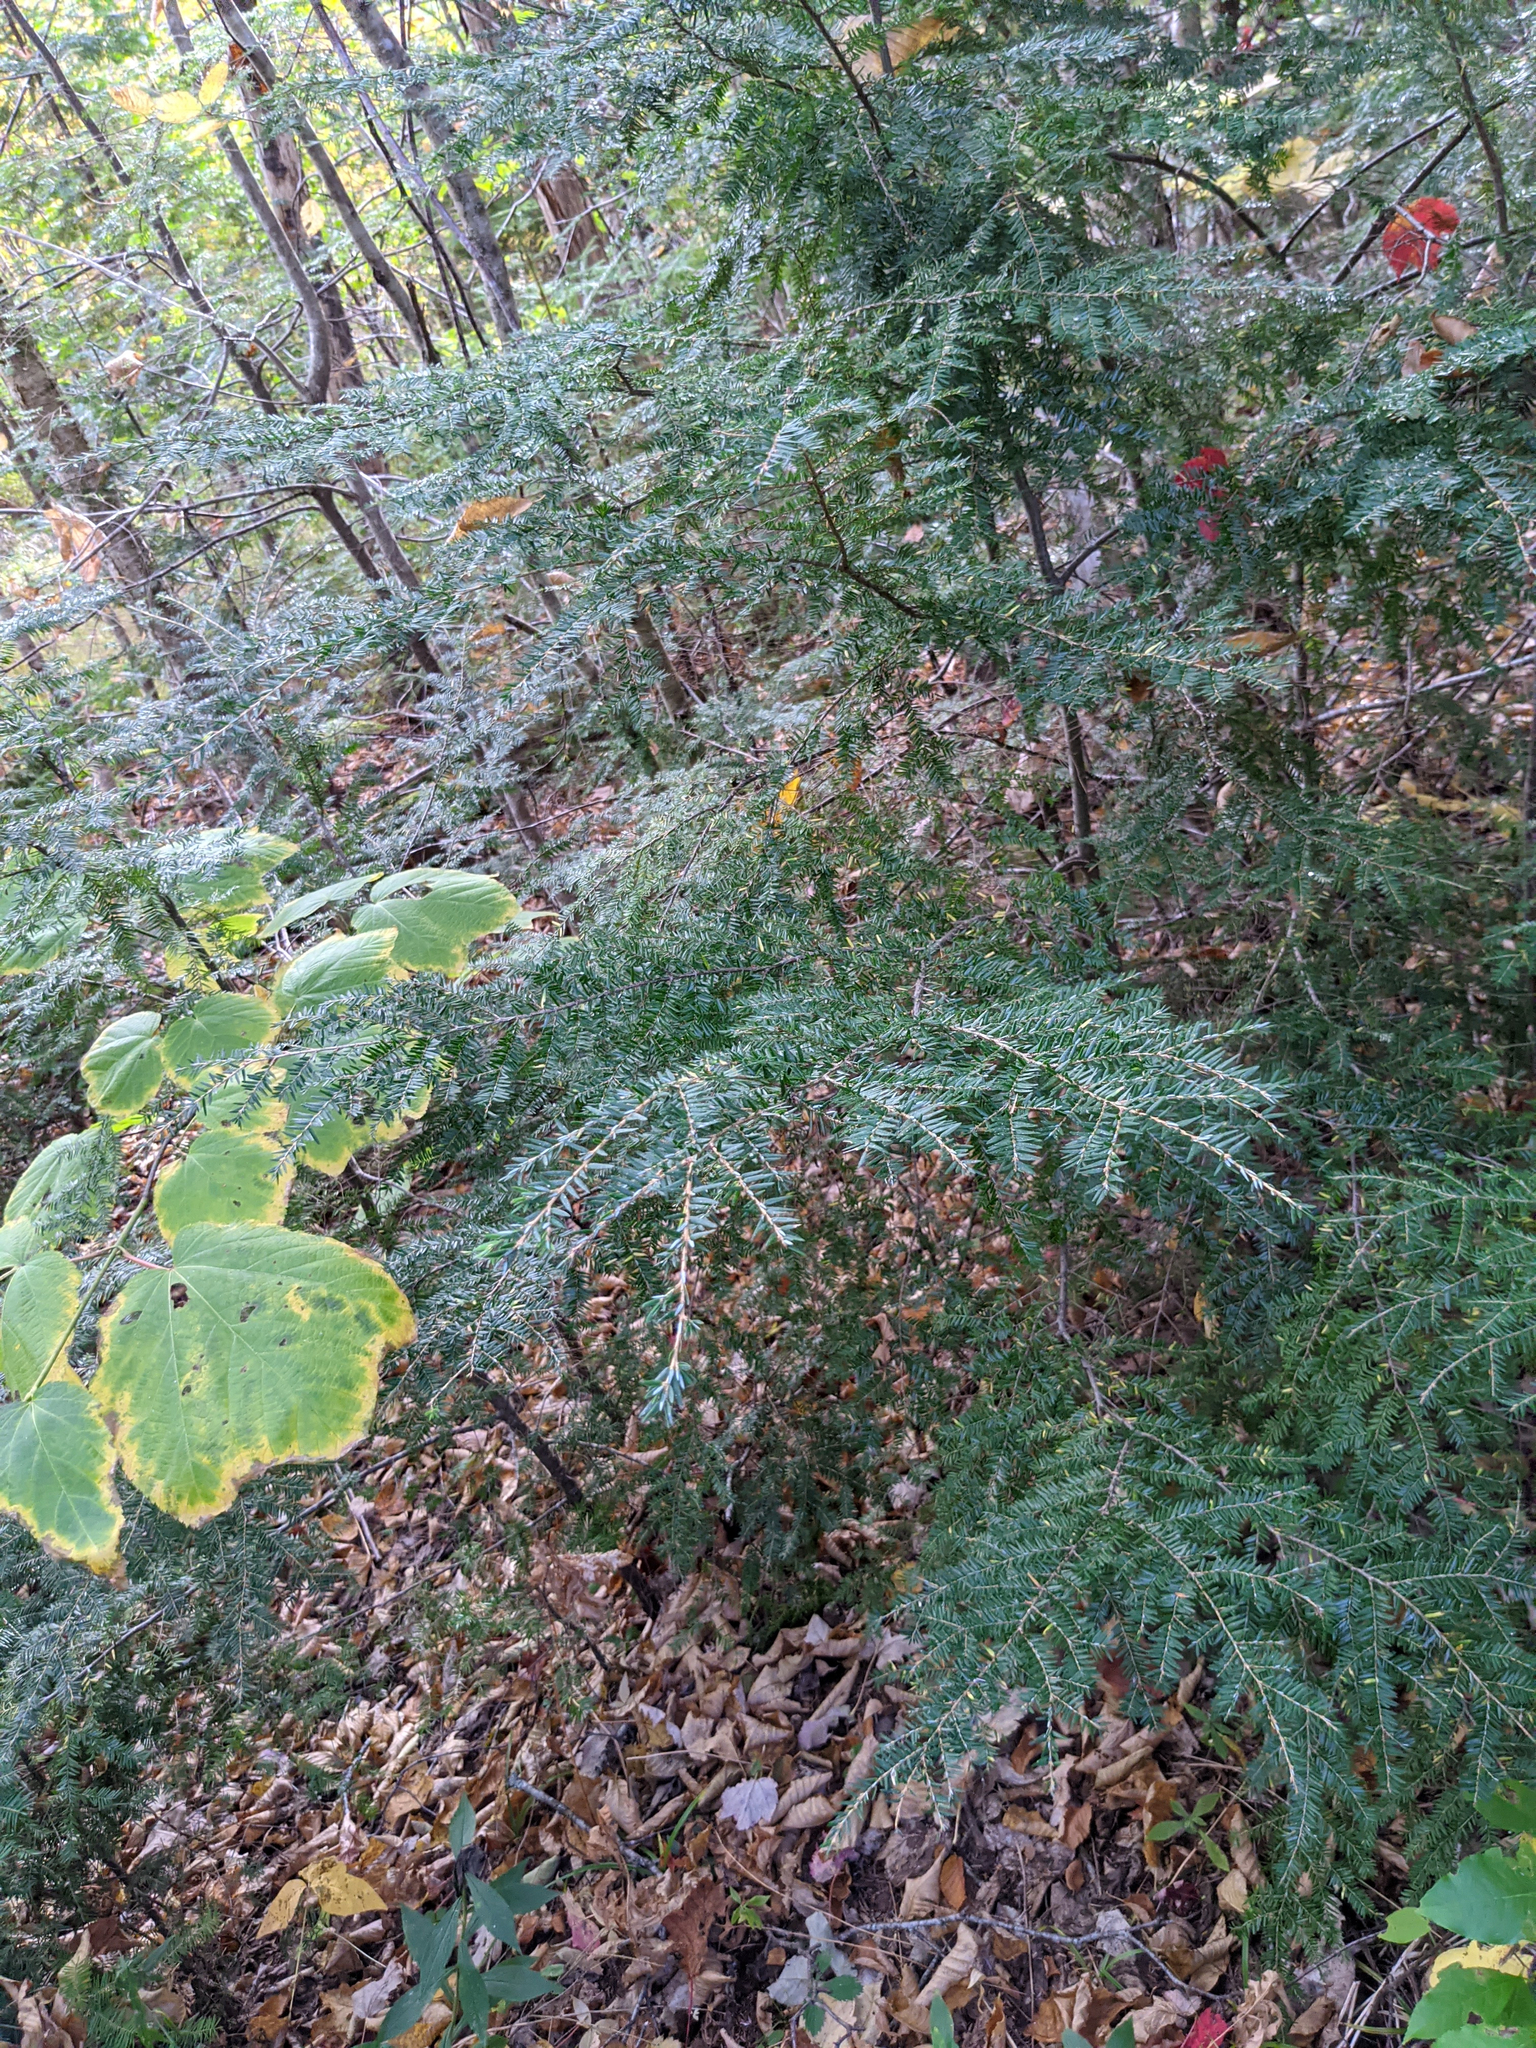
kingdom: Plantae
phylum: Tracheophyta
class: Pinopsida
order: Pinales
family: Pinaceae
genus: Tsuga
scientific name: Tsuga canadensis
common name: Eastern hemlock
